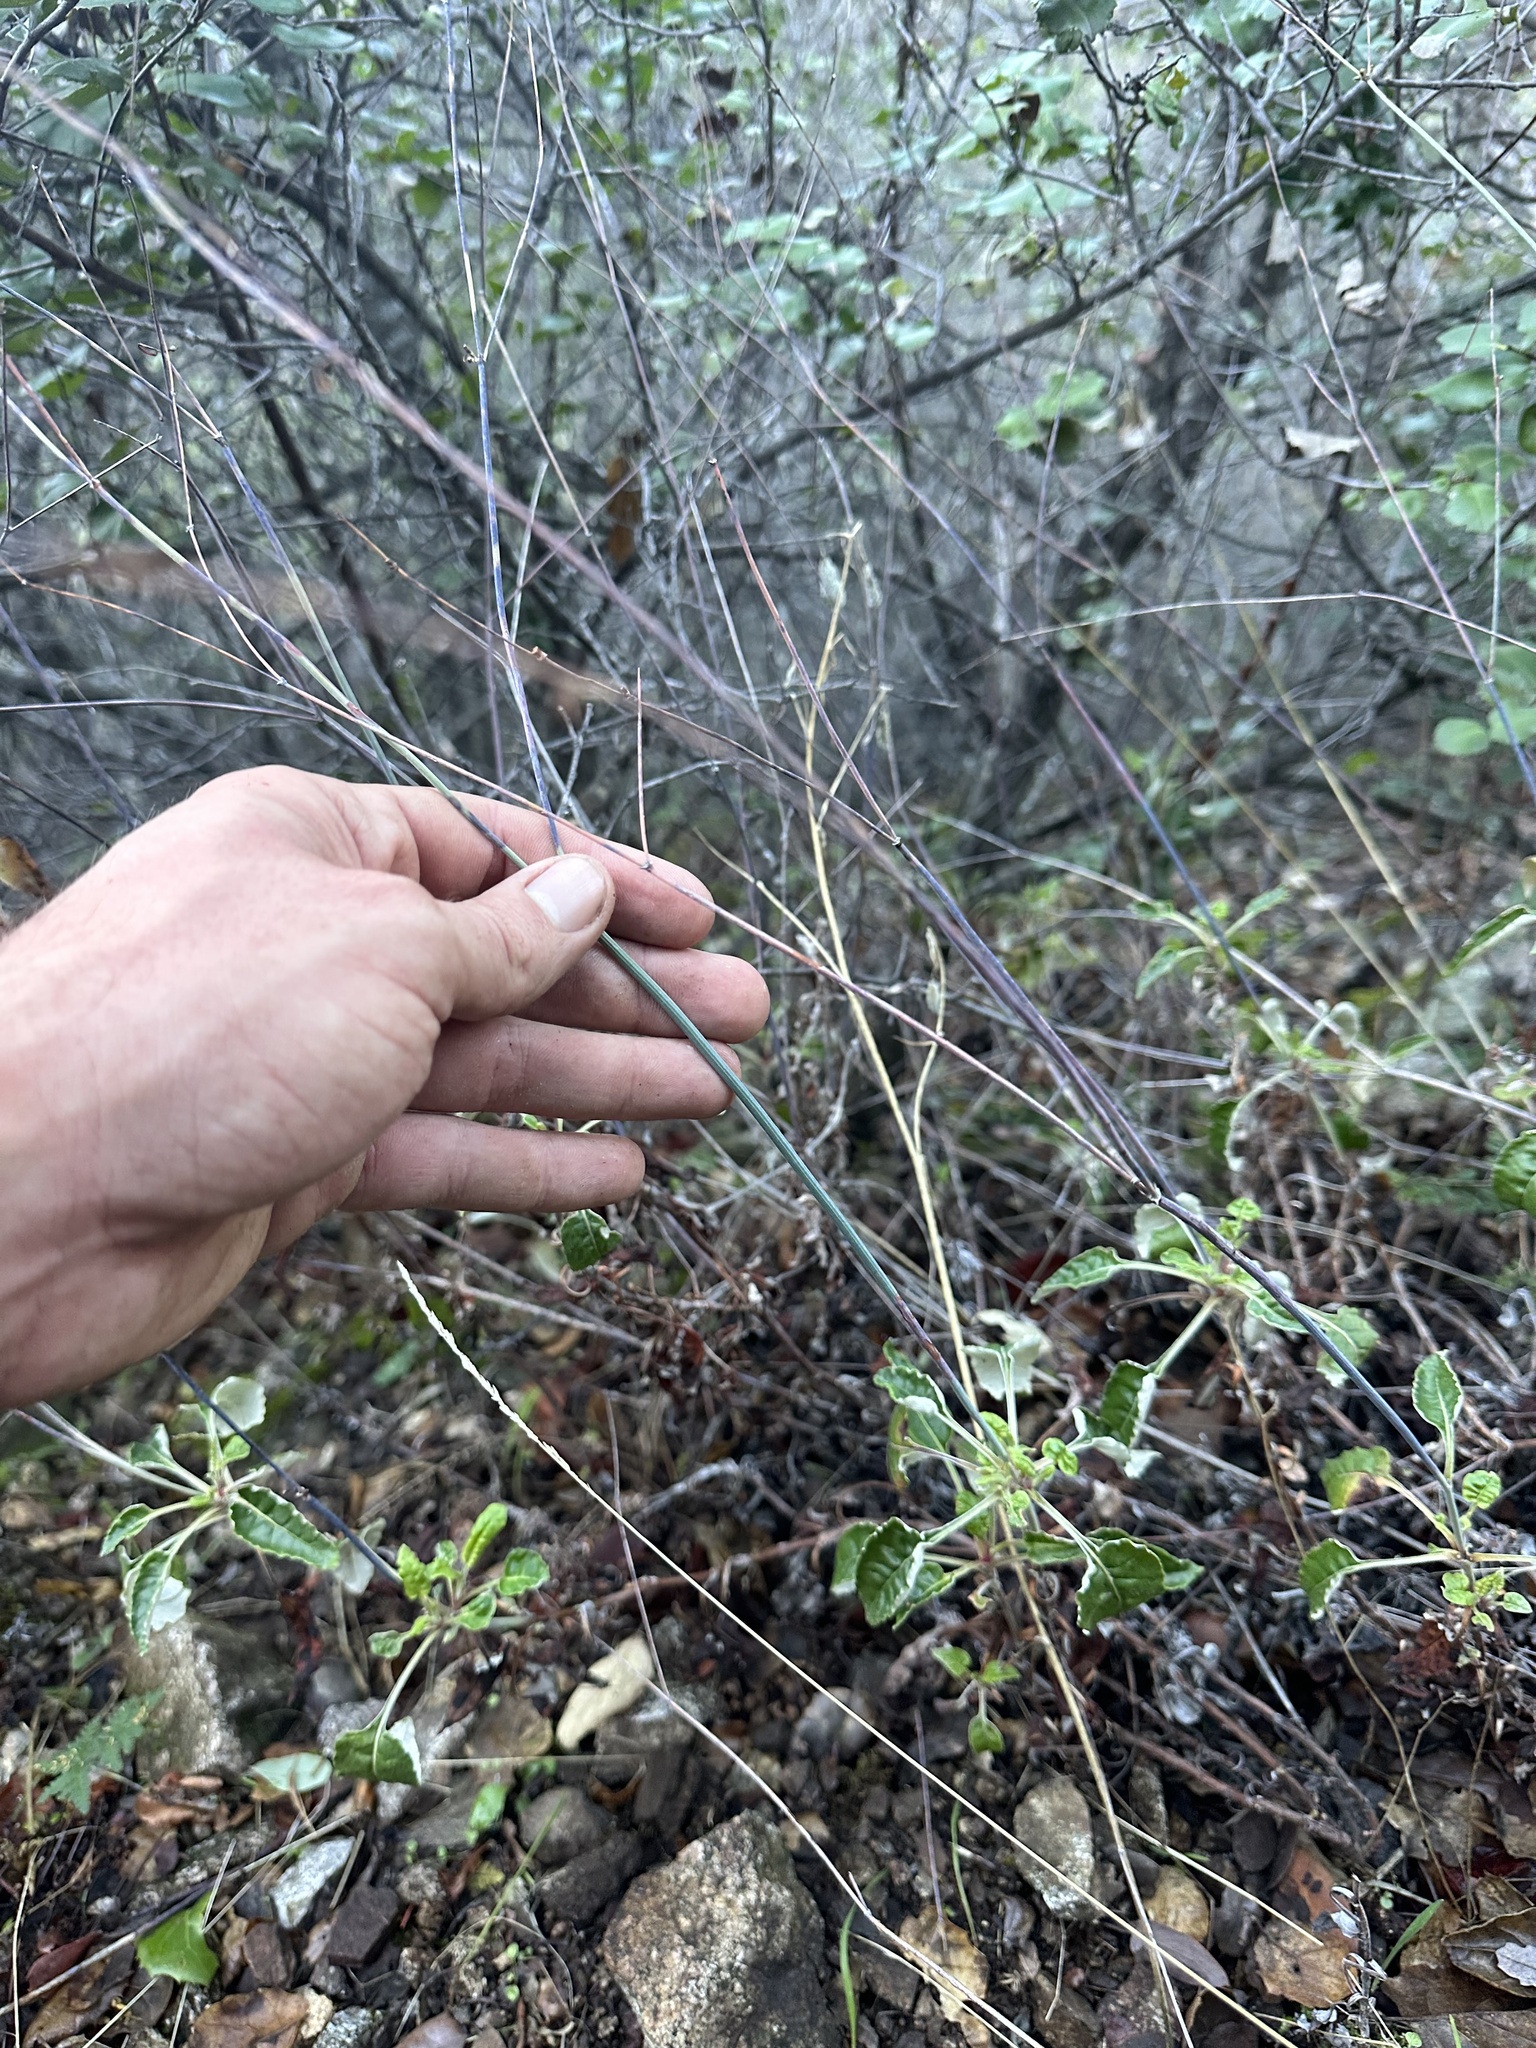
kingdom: Plantae
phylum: Tracheophyta
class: Magnoliopsida
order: Caryophyllales
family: Polygonaceae
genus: Eriogonum
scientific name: Eriogonum nudum
